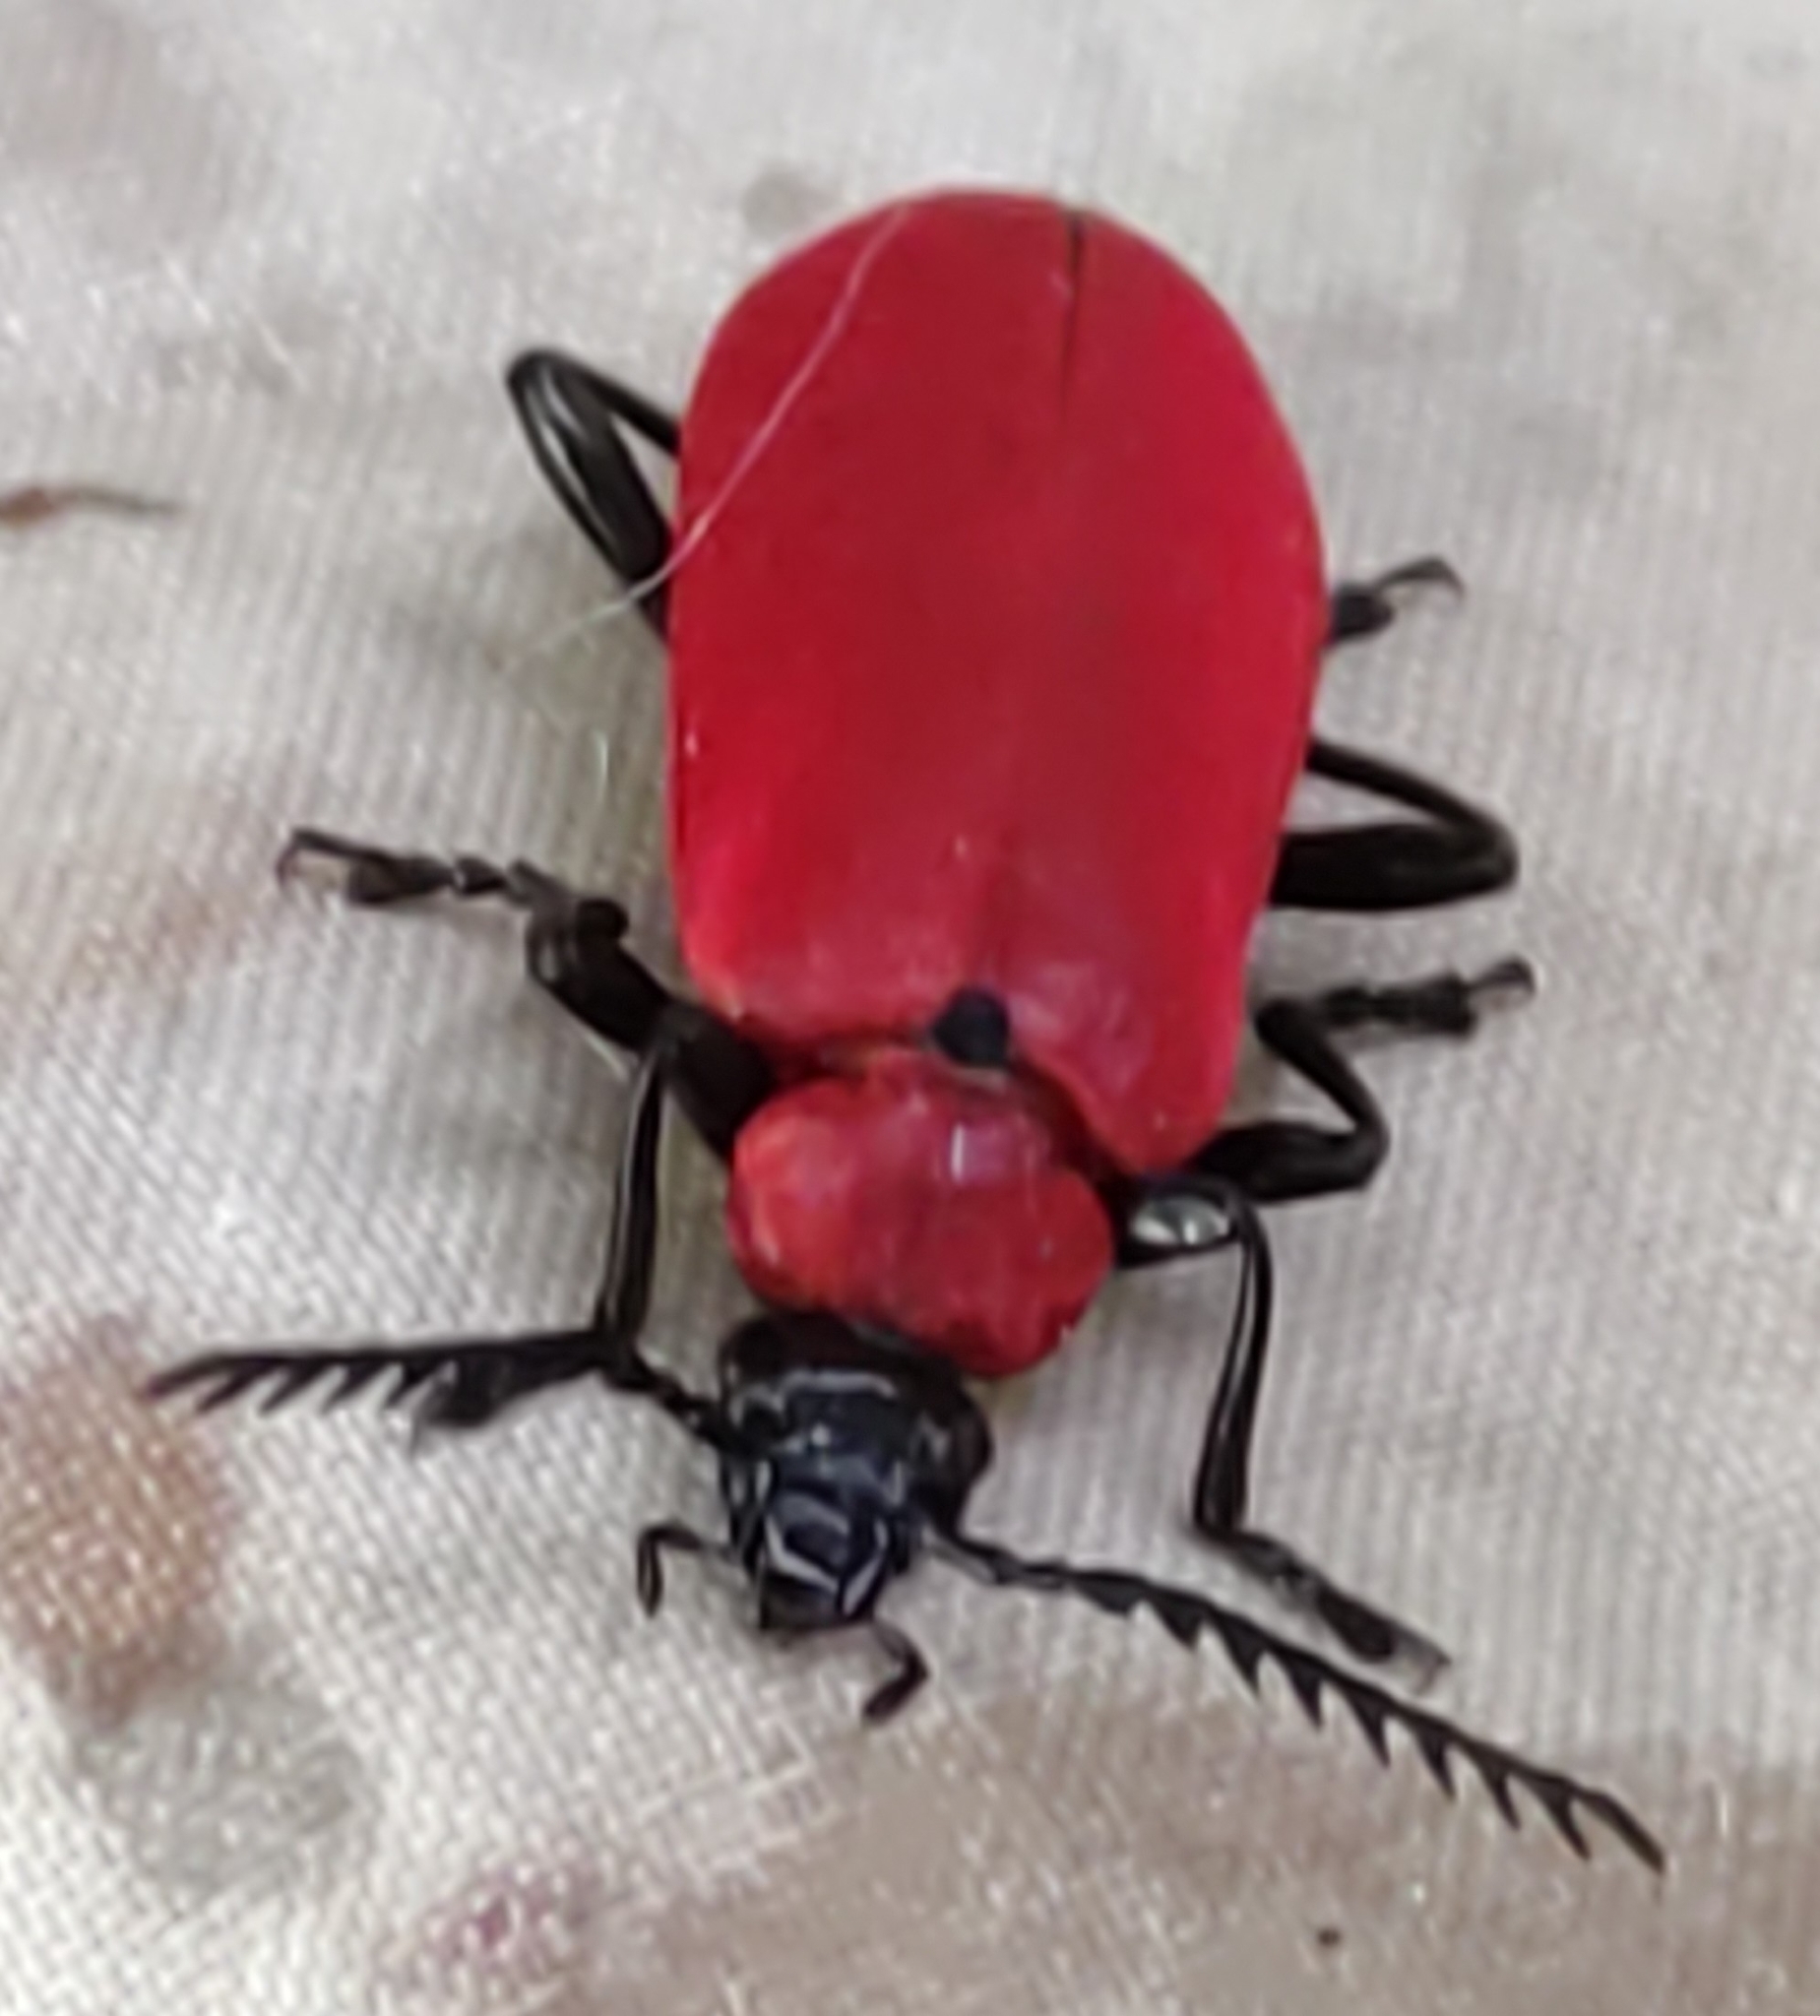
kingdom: Animalia
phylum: Arthropoda
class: Insecta
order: Coleoptera
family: Pyrochroidae
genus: Pyrochroa
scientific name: Pyrochroa coccinea
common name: Black-headed cardinal beetle
